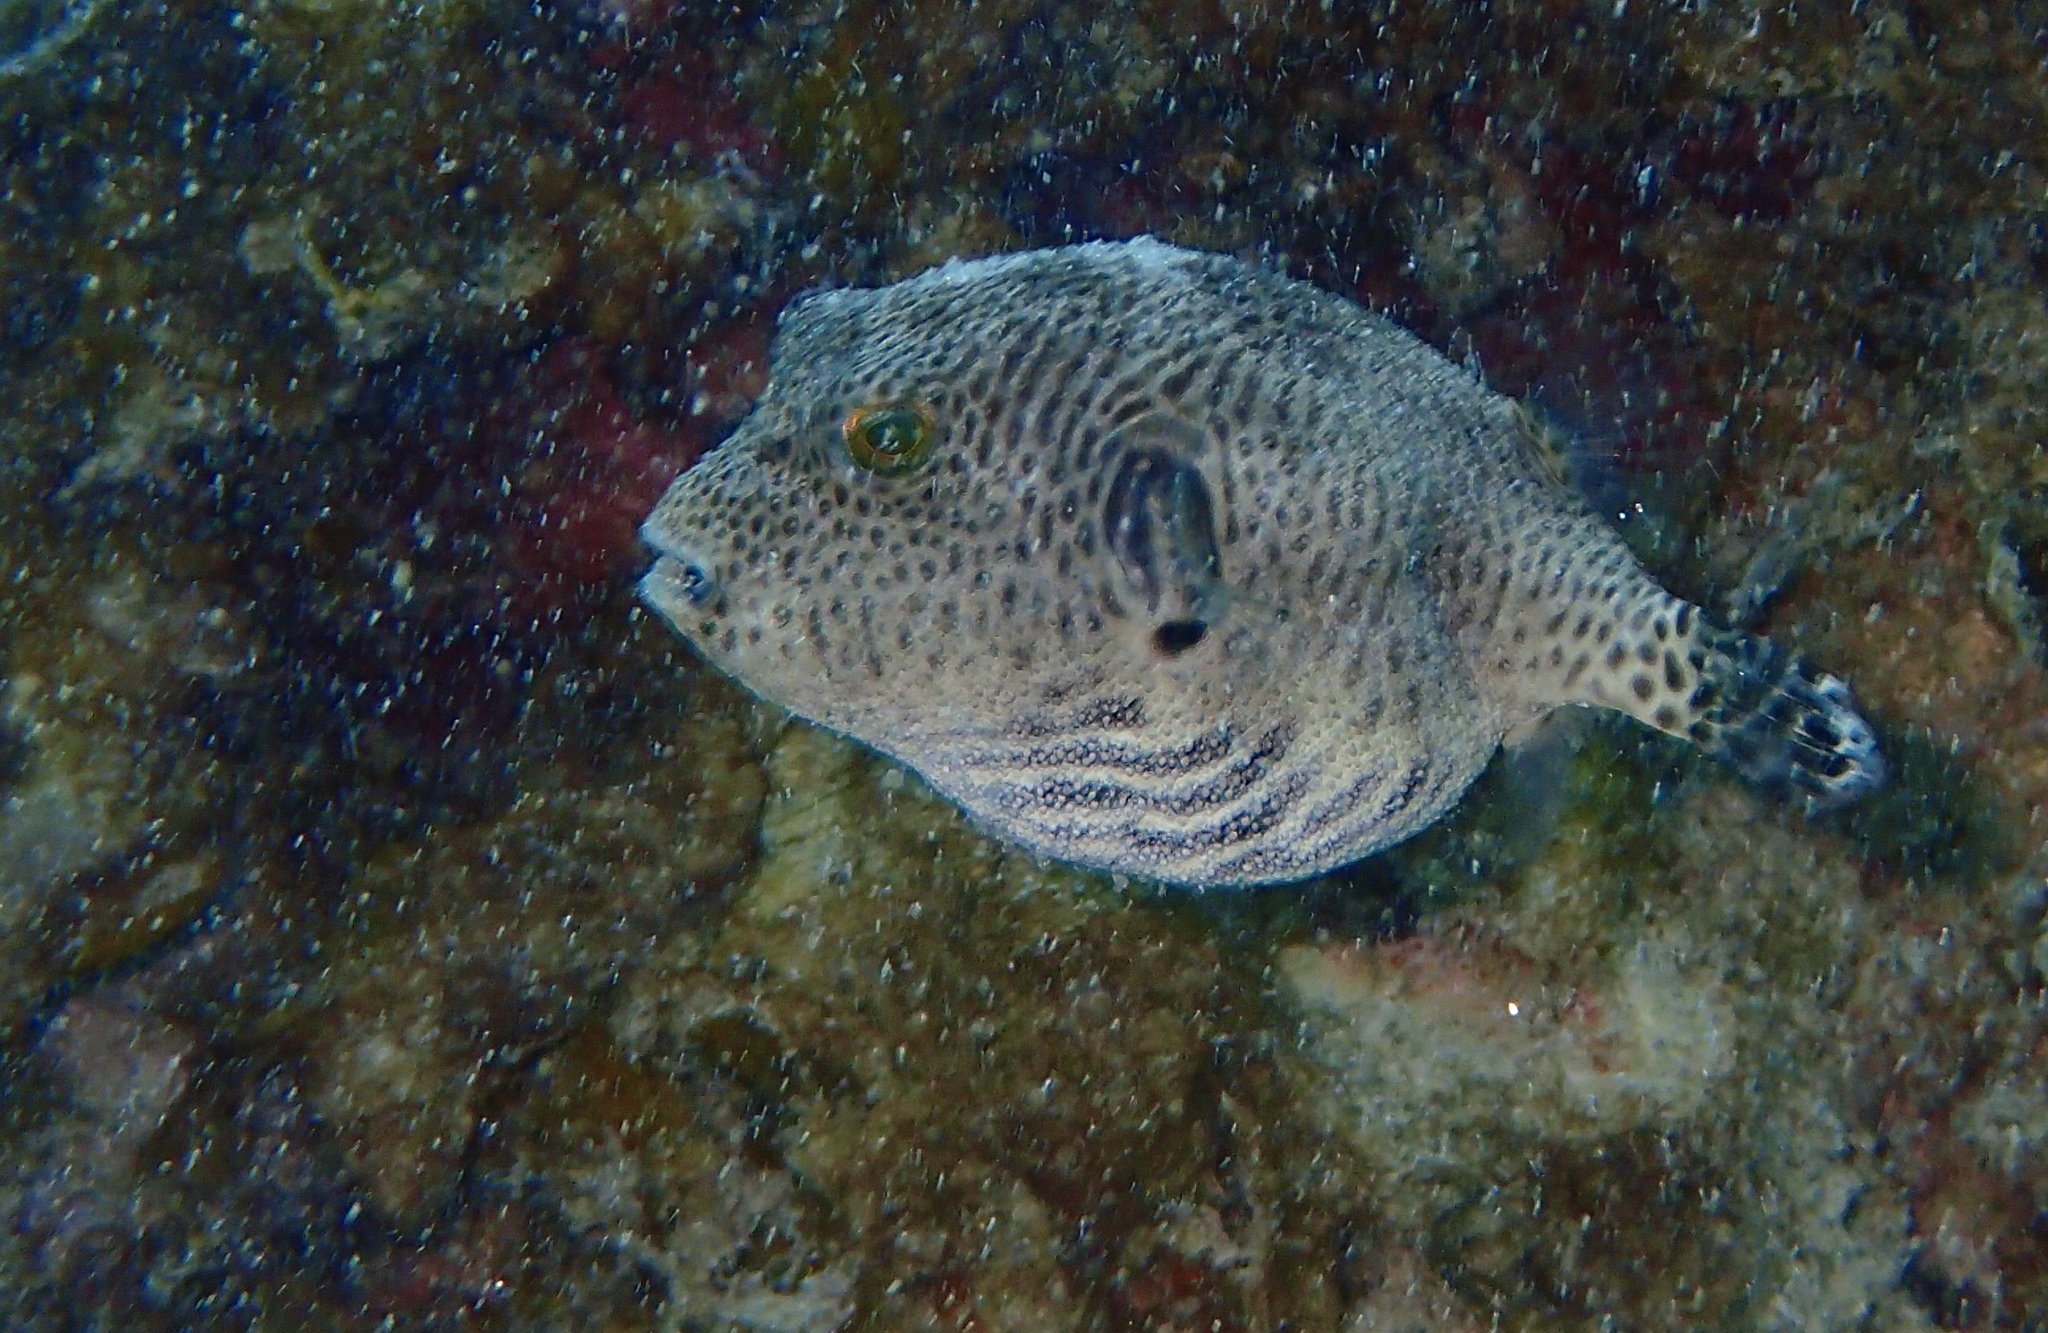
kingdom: Animalia
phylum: Chordata
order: Tetraodontiformes
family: Tetraodontidae
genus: Arothron
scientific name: Arothron stellatus
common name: Star blaasop
